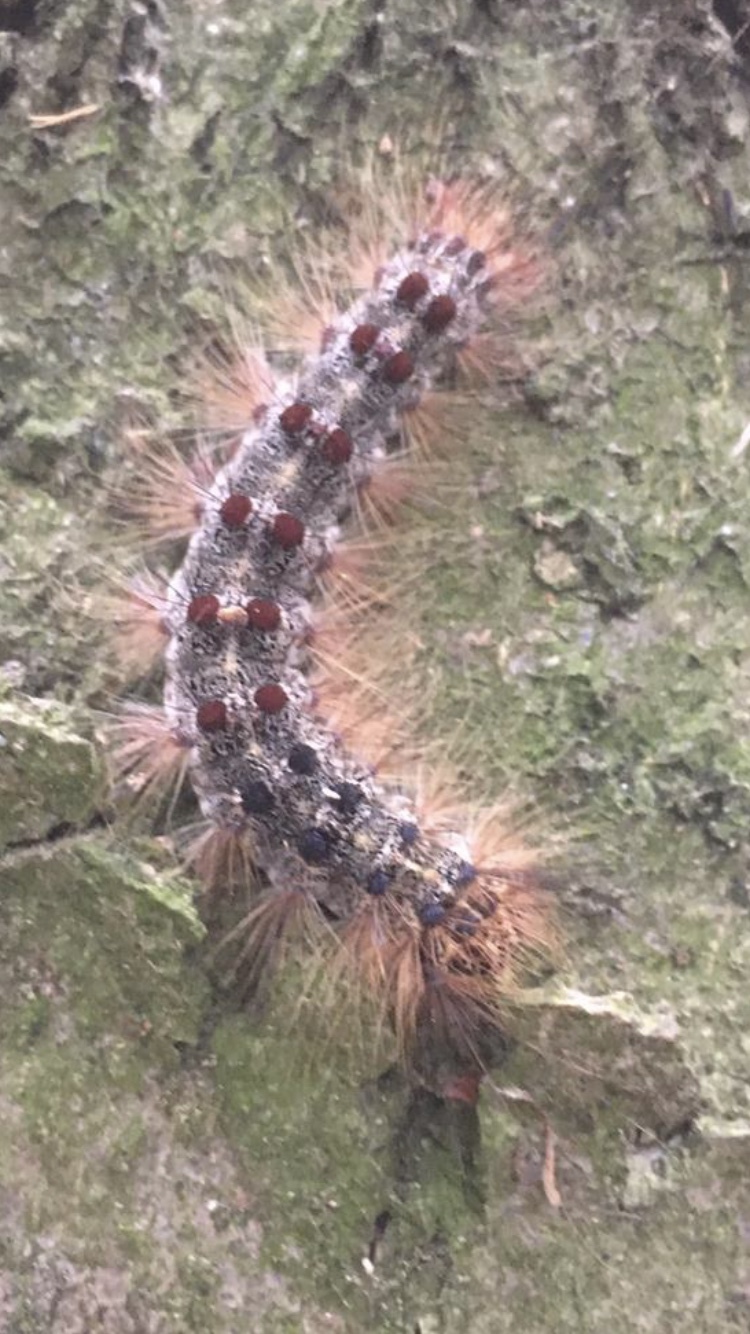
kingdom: Animalia
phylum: Arthropoda
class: Insecta
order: Lepidoptera
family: Erebidae
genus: Lymantria
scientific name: Lymantria dispar
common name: Gypsy moth
